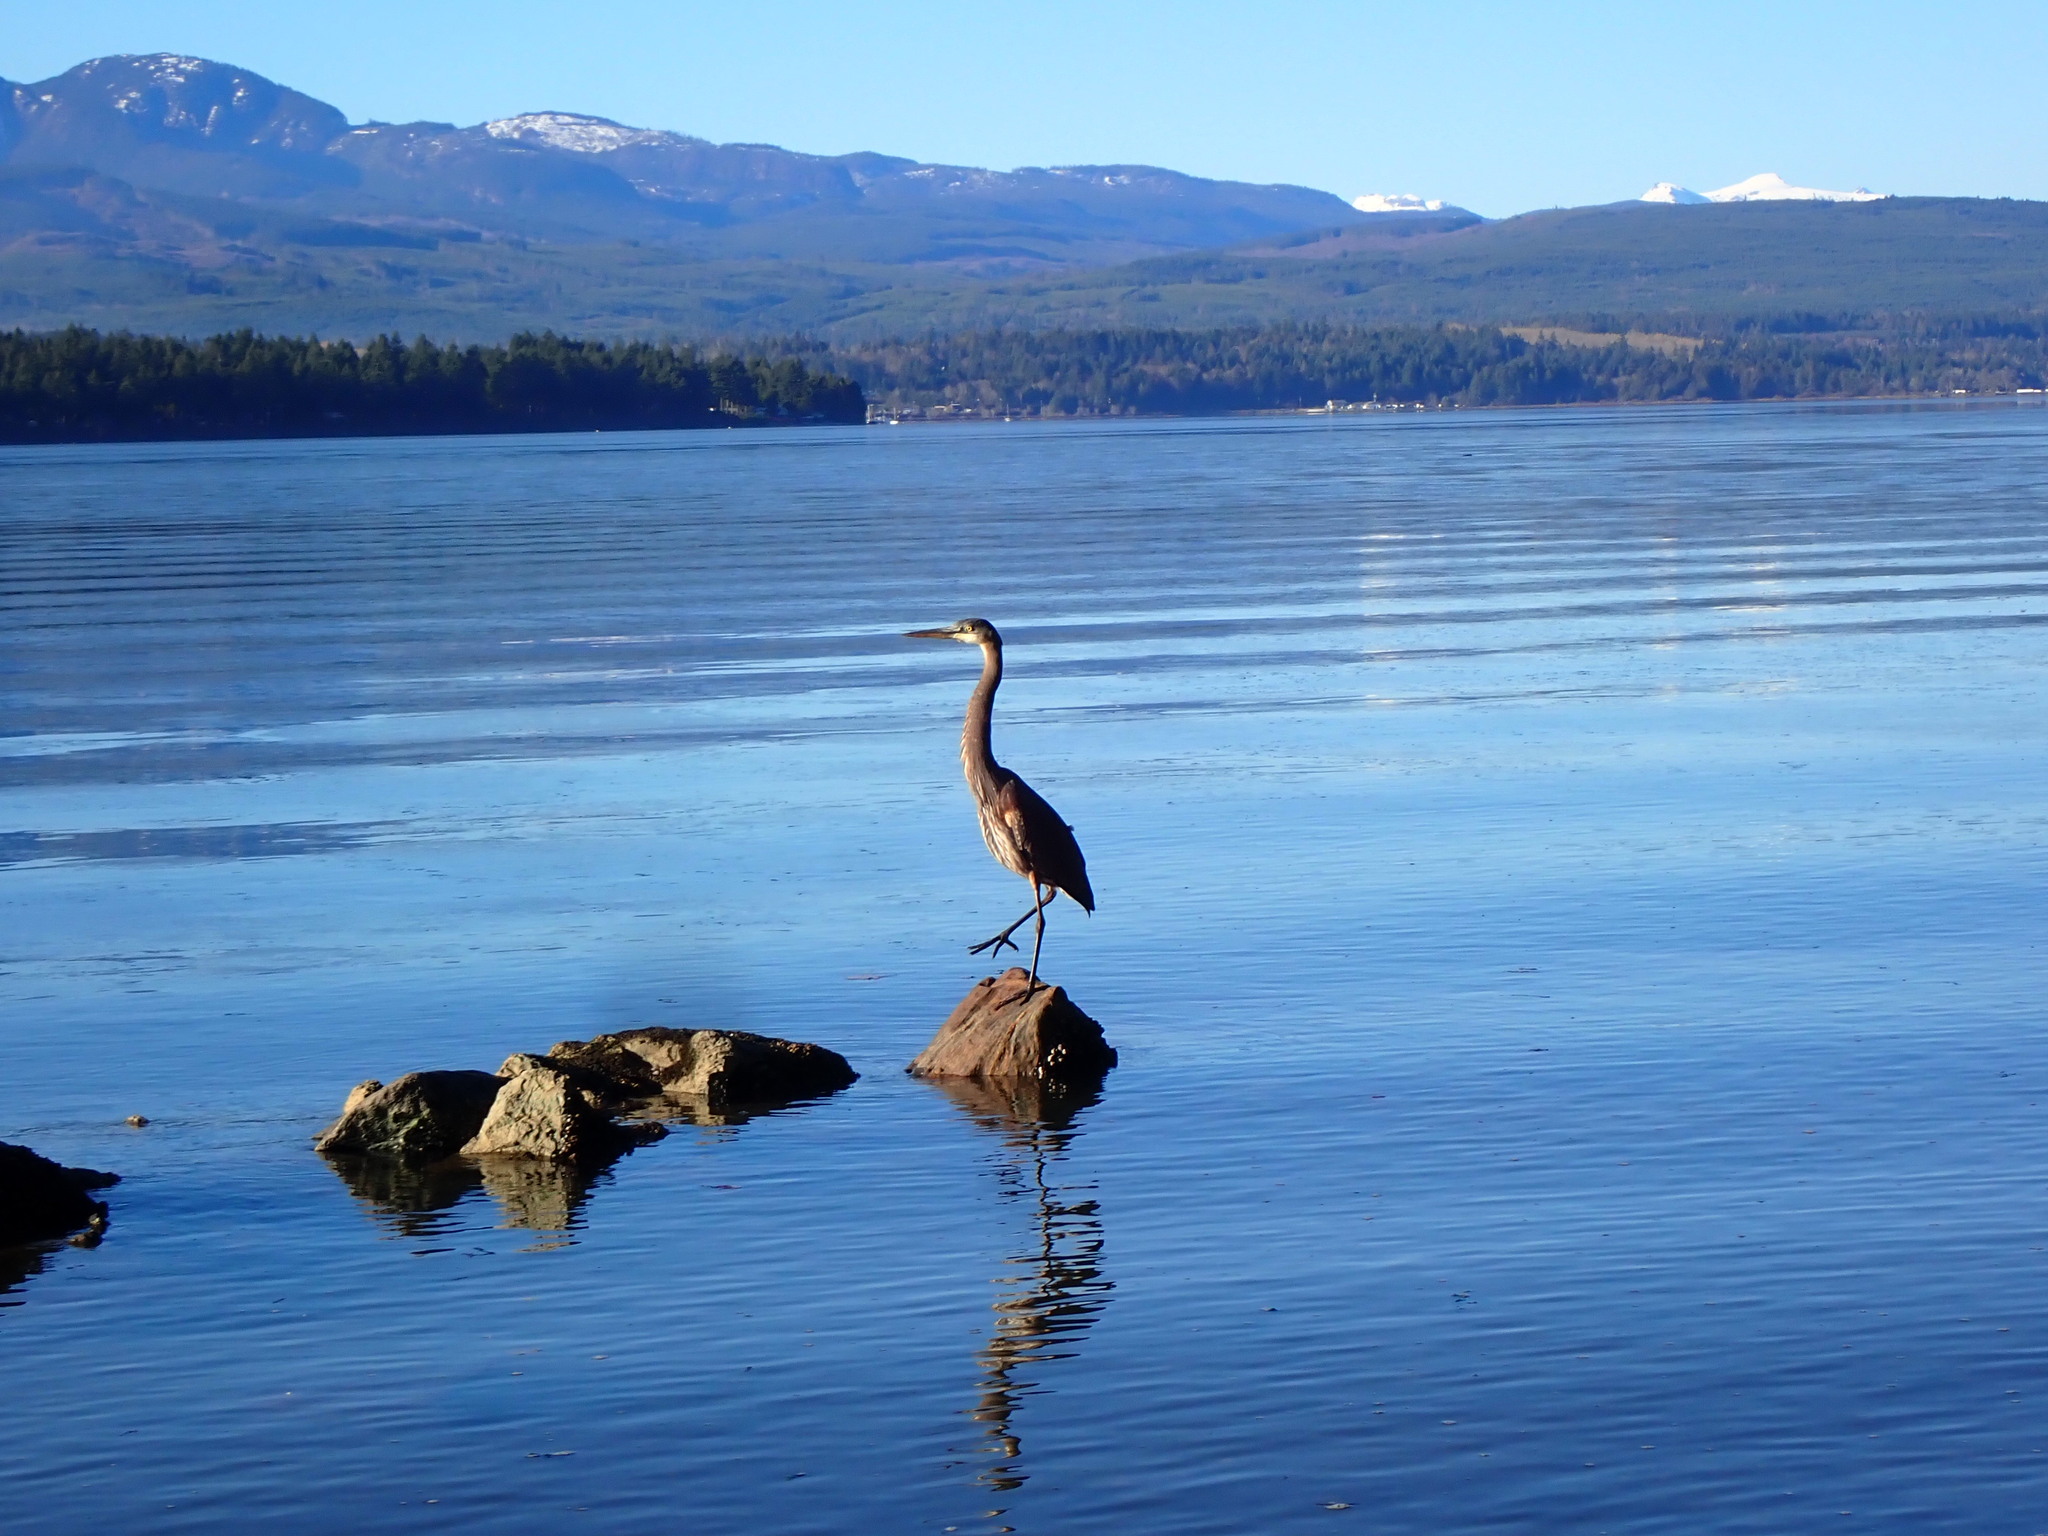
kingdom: Animalia
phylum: Chordata
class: Aves
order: Pelecaniformes
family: Ardeidae
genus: Ardea
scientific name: Ardea herodias
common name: Great blue heron
